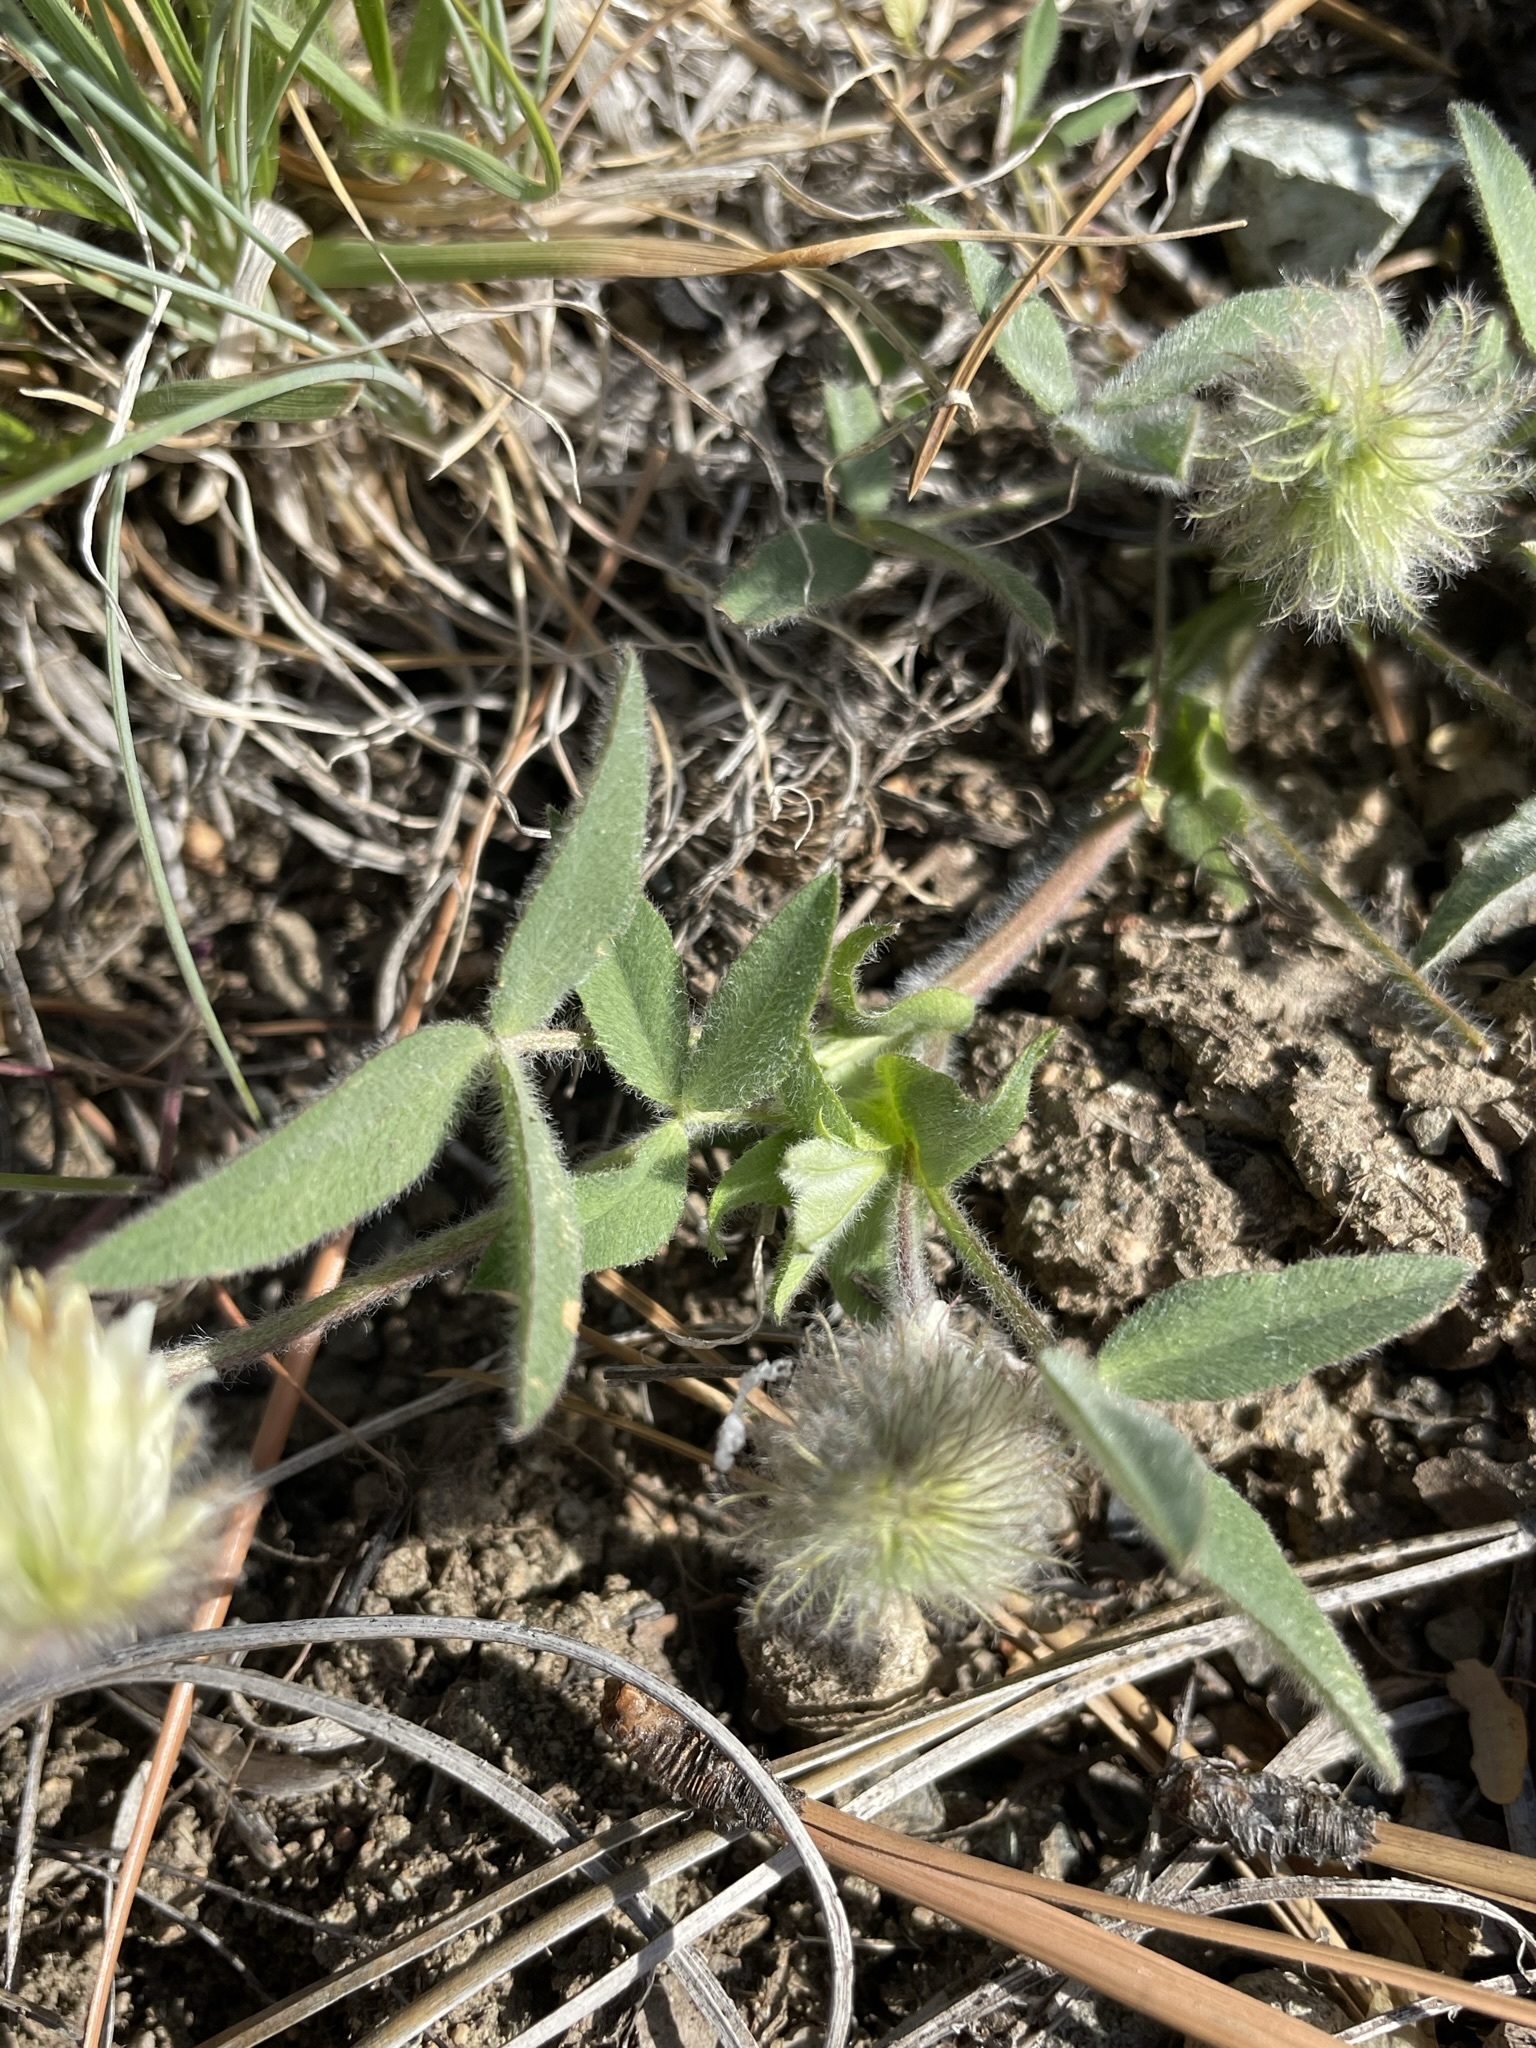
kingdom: Plantae
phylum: Tracheophyta
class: Magnoliopsida
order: Fabales
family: Fabaceae
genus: Trifolium
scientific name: Trifolium eriocephalum
